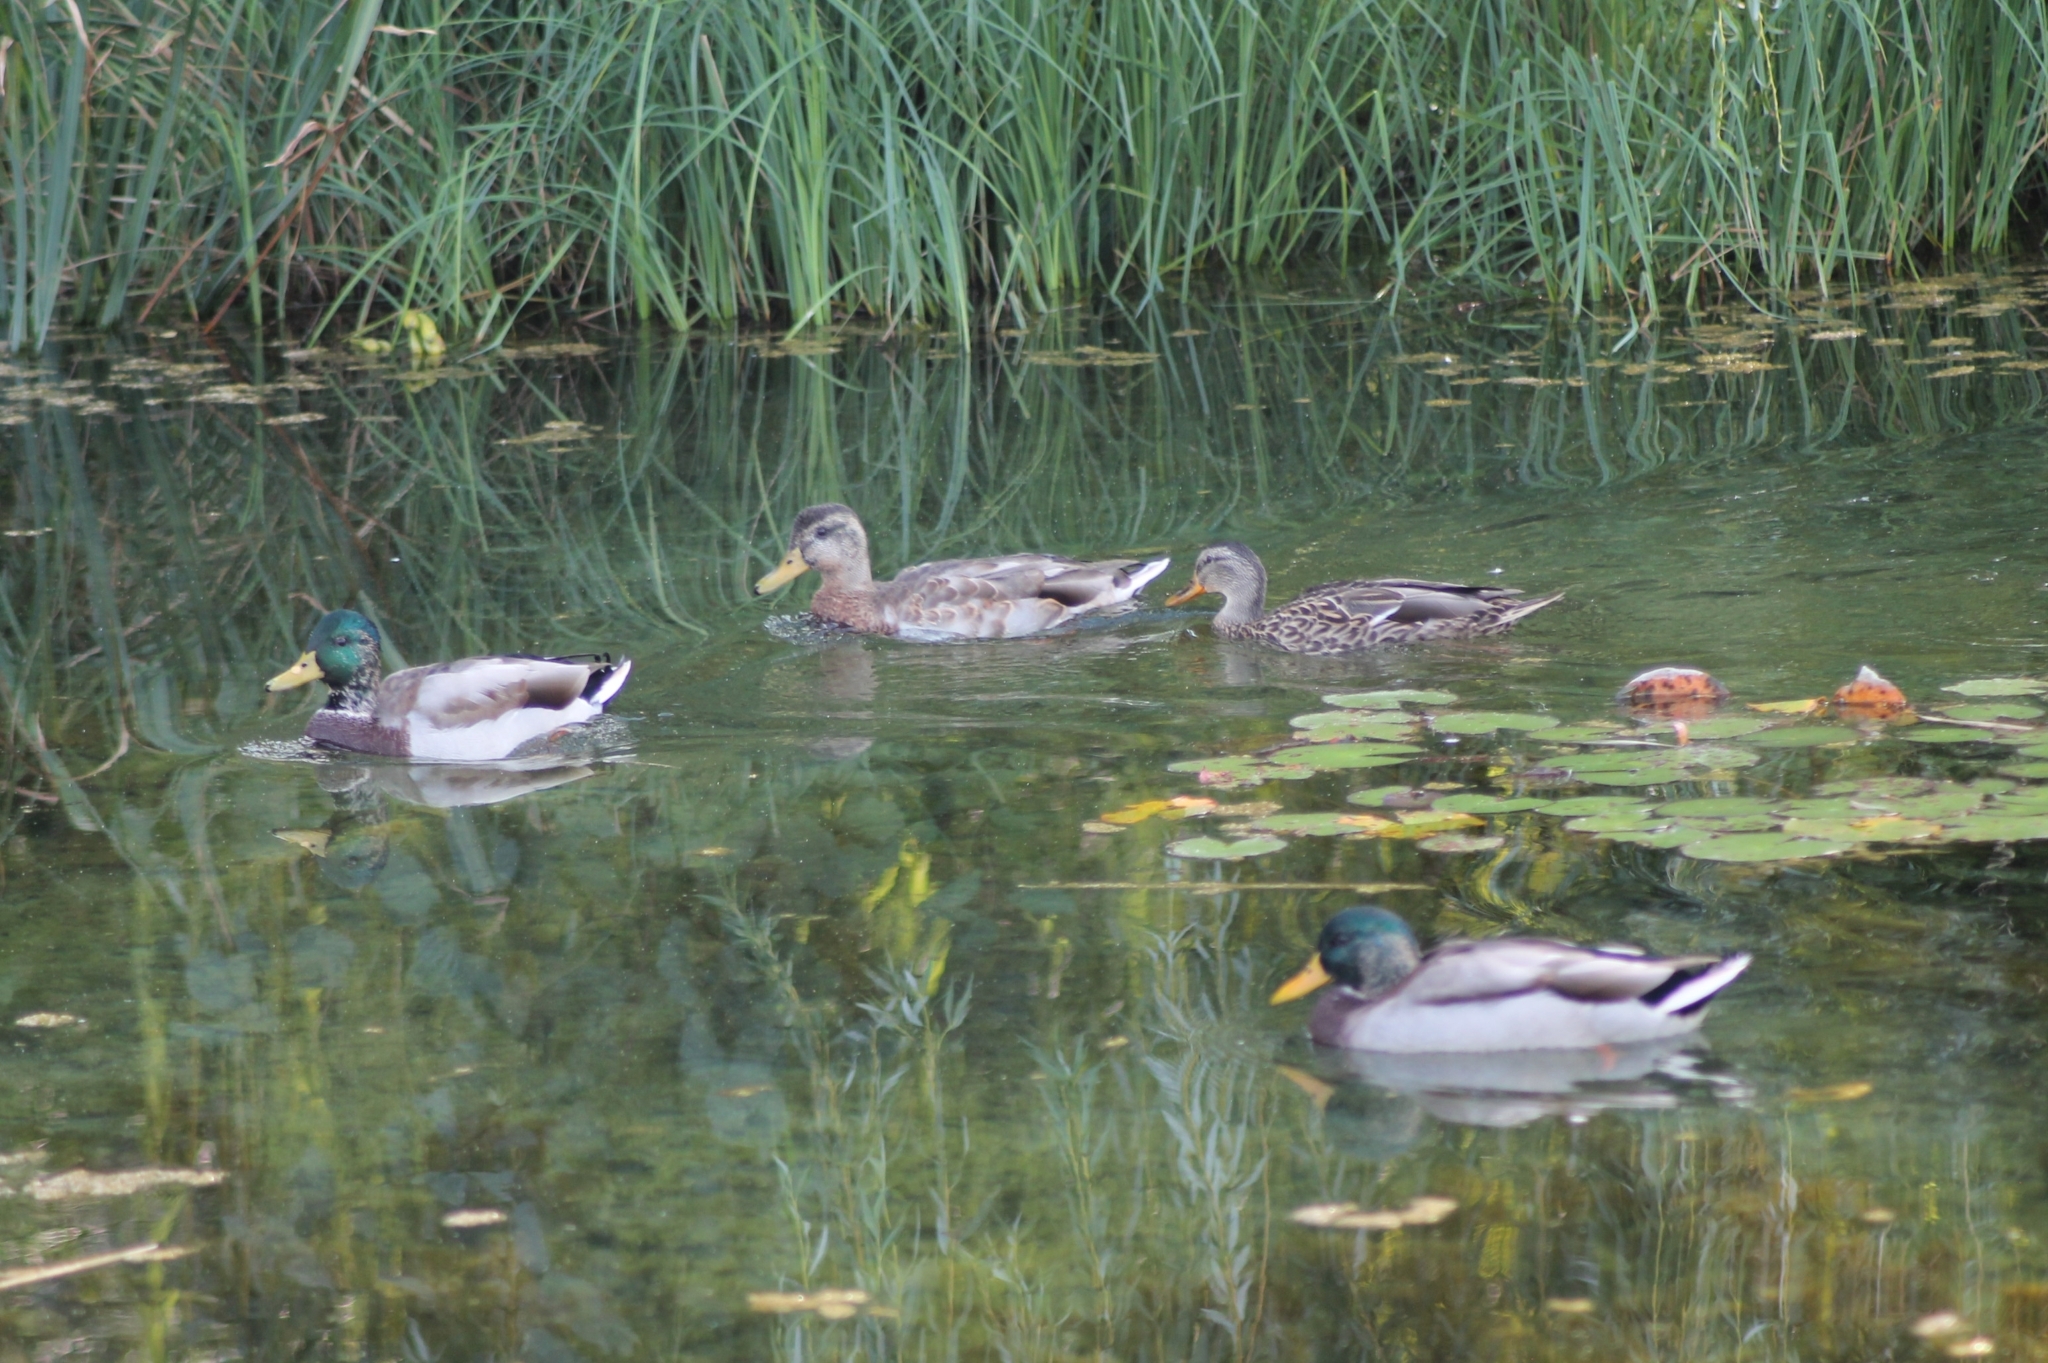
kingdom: Animalia
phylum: Chordata
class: Aves
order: Anseriformes
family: Anatidae
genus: Anas
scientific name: Anas platyrhynchos
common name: Mallard
